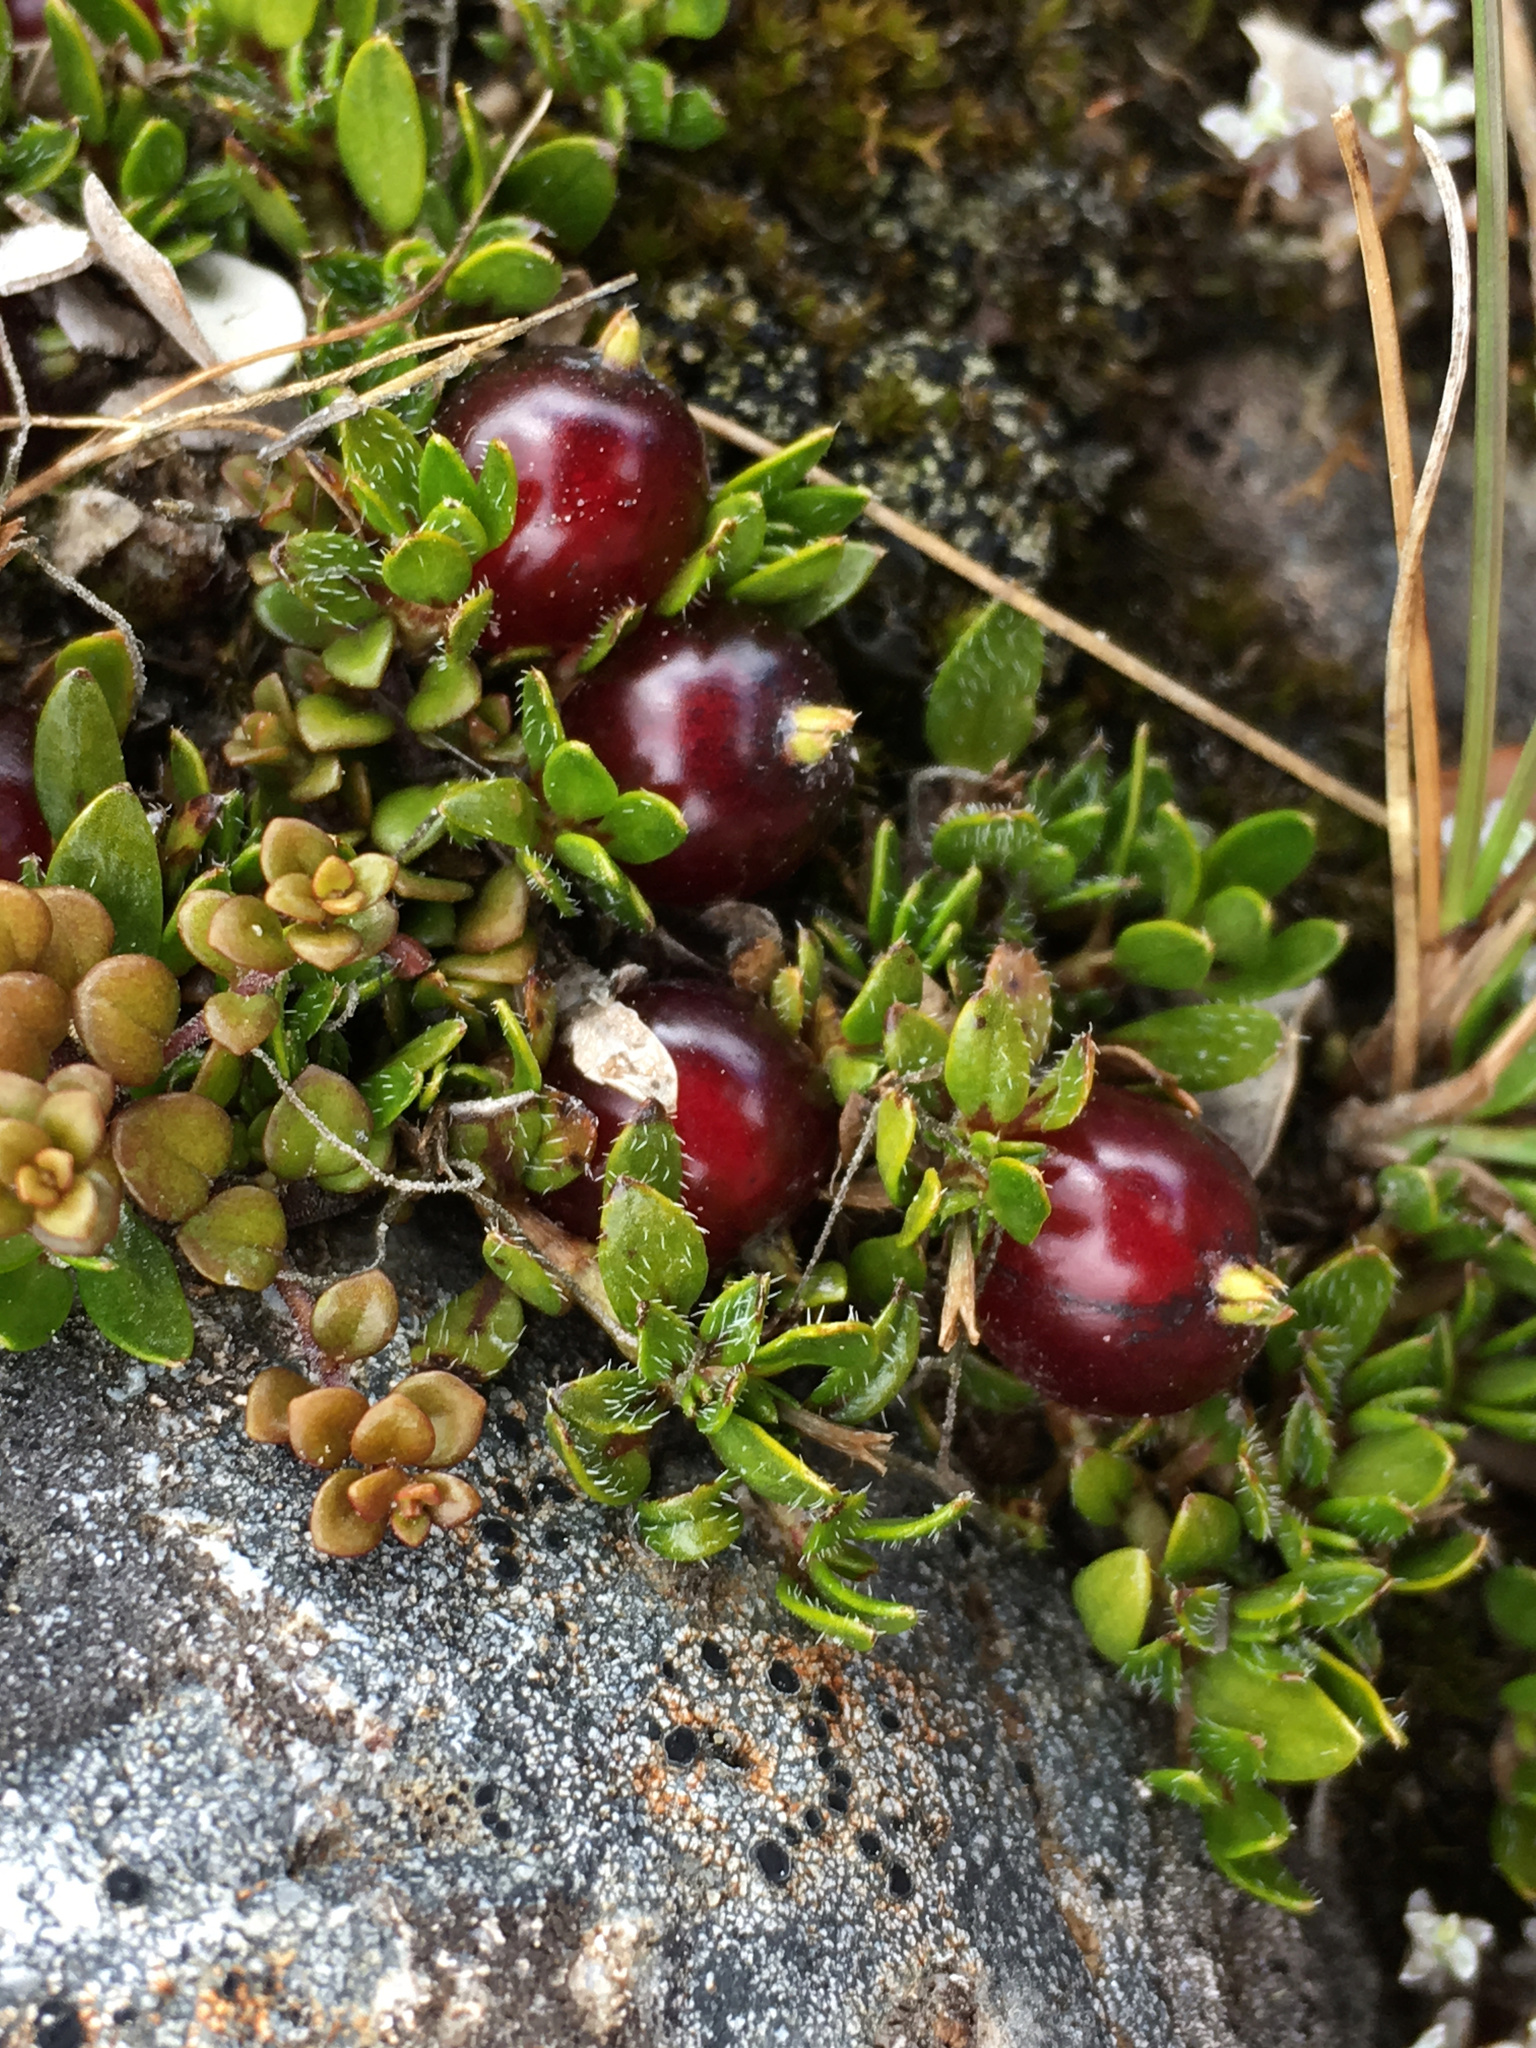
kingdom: Plantae
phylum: Tracheophyta
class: Magnoliopsida
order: Gentianales
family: Rubiaceae
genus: Coprosma
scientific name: Coprosma atropurpurea
